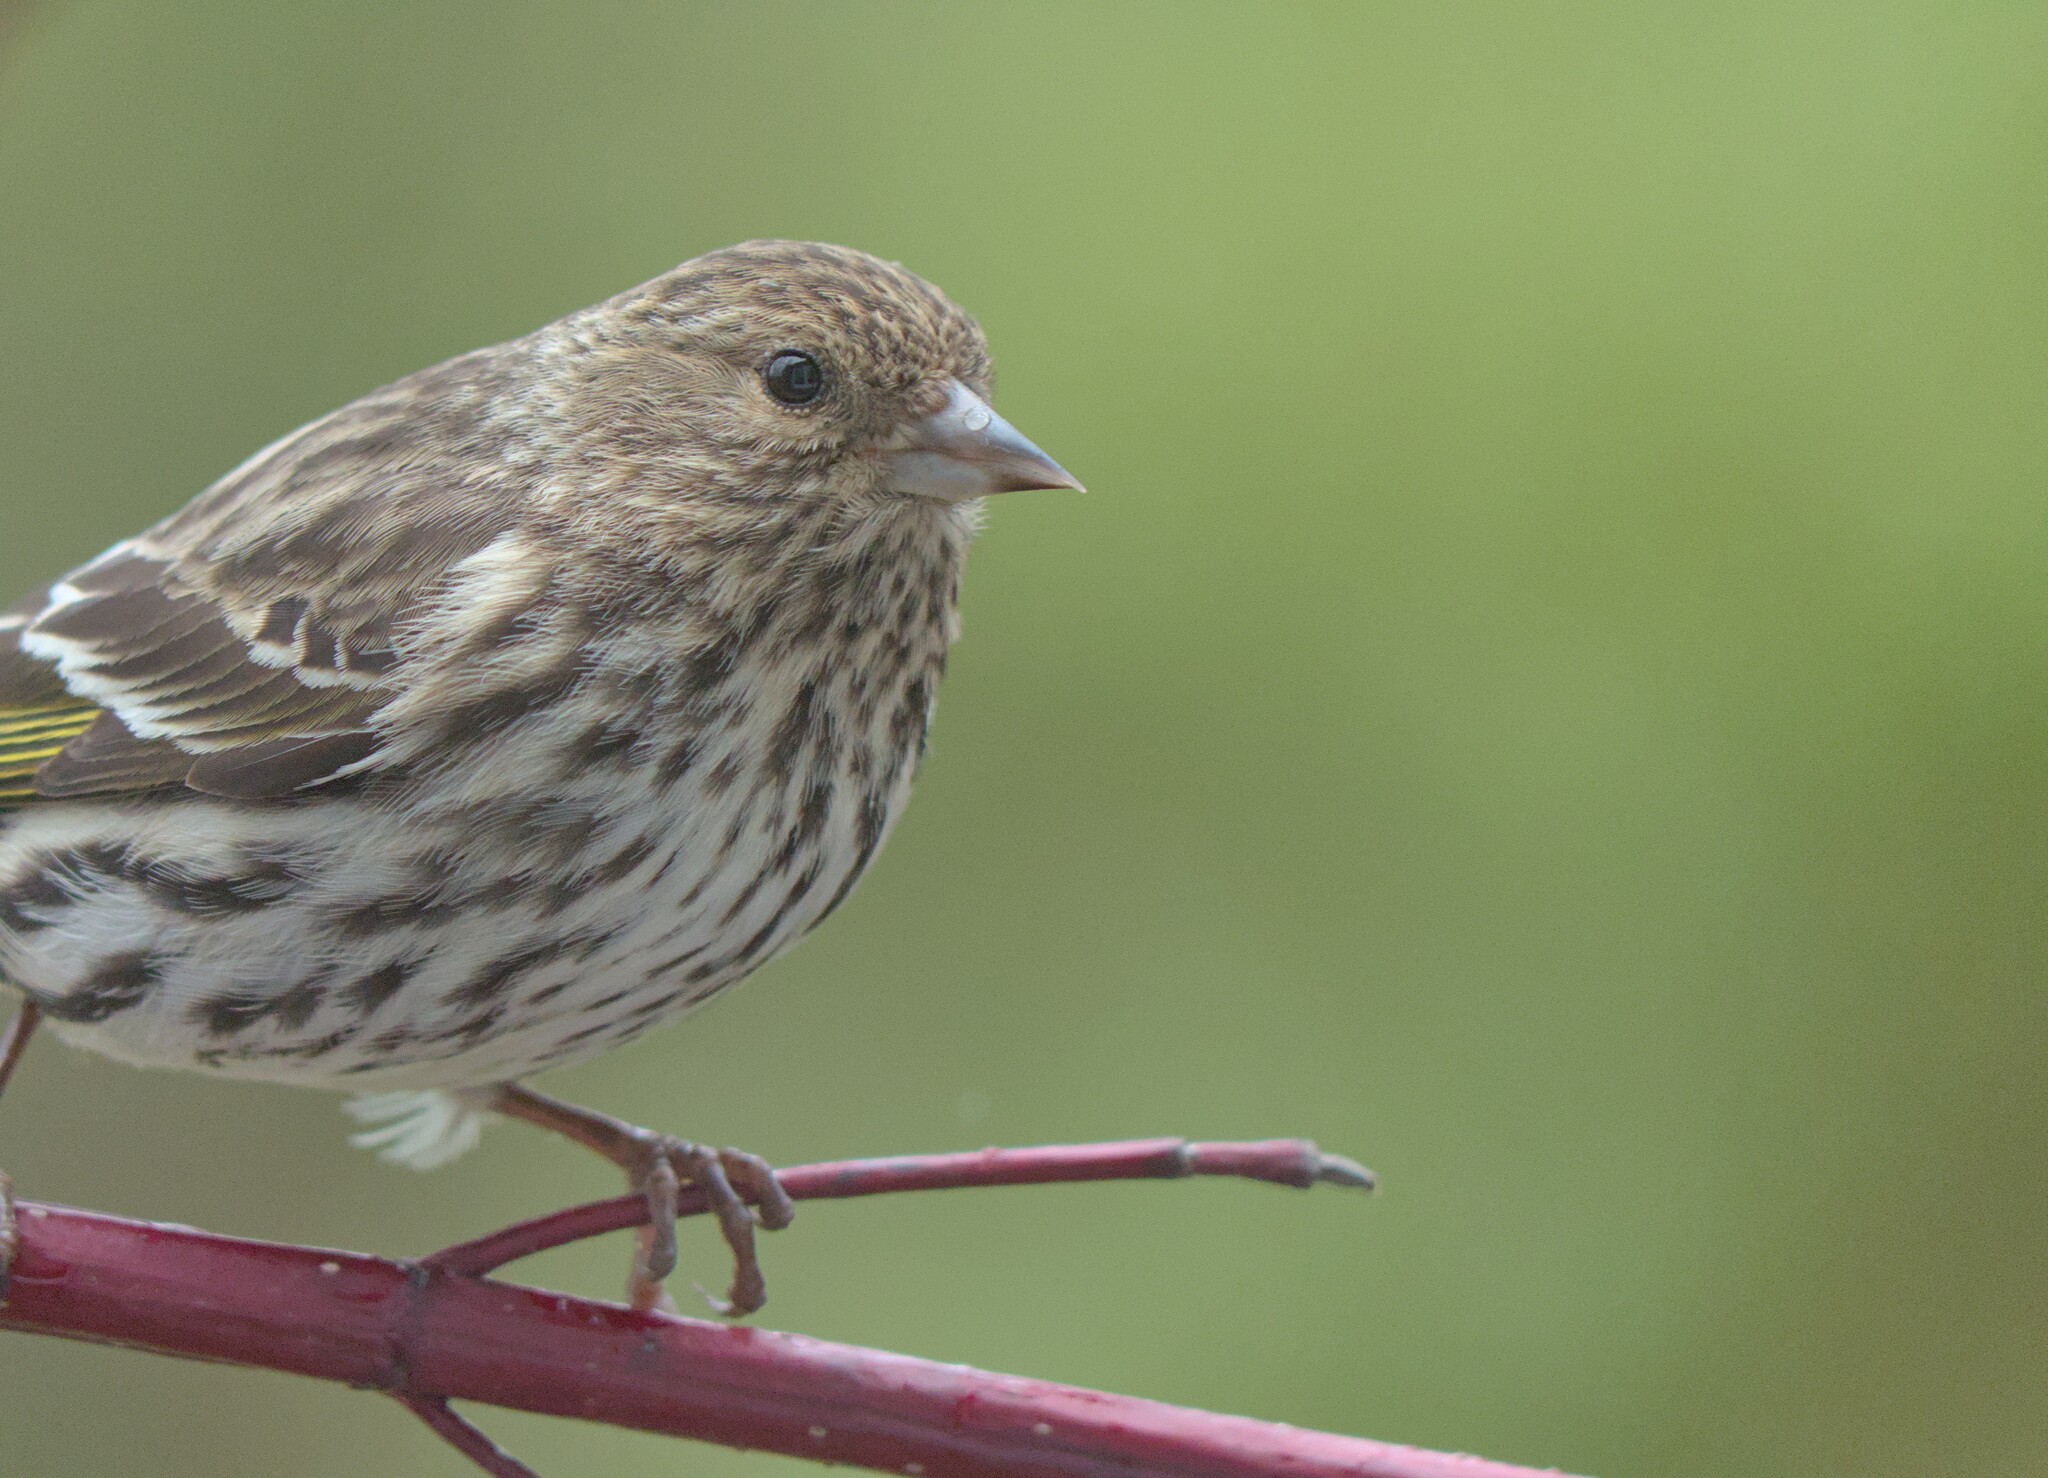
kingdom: Animalia
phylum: Chordata
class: Aves
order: Passeriformes
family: Fringillidae
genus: Spinus
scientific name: Spinus pinus
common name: Pine siskin
